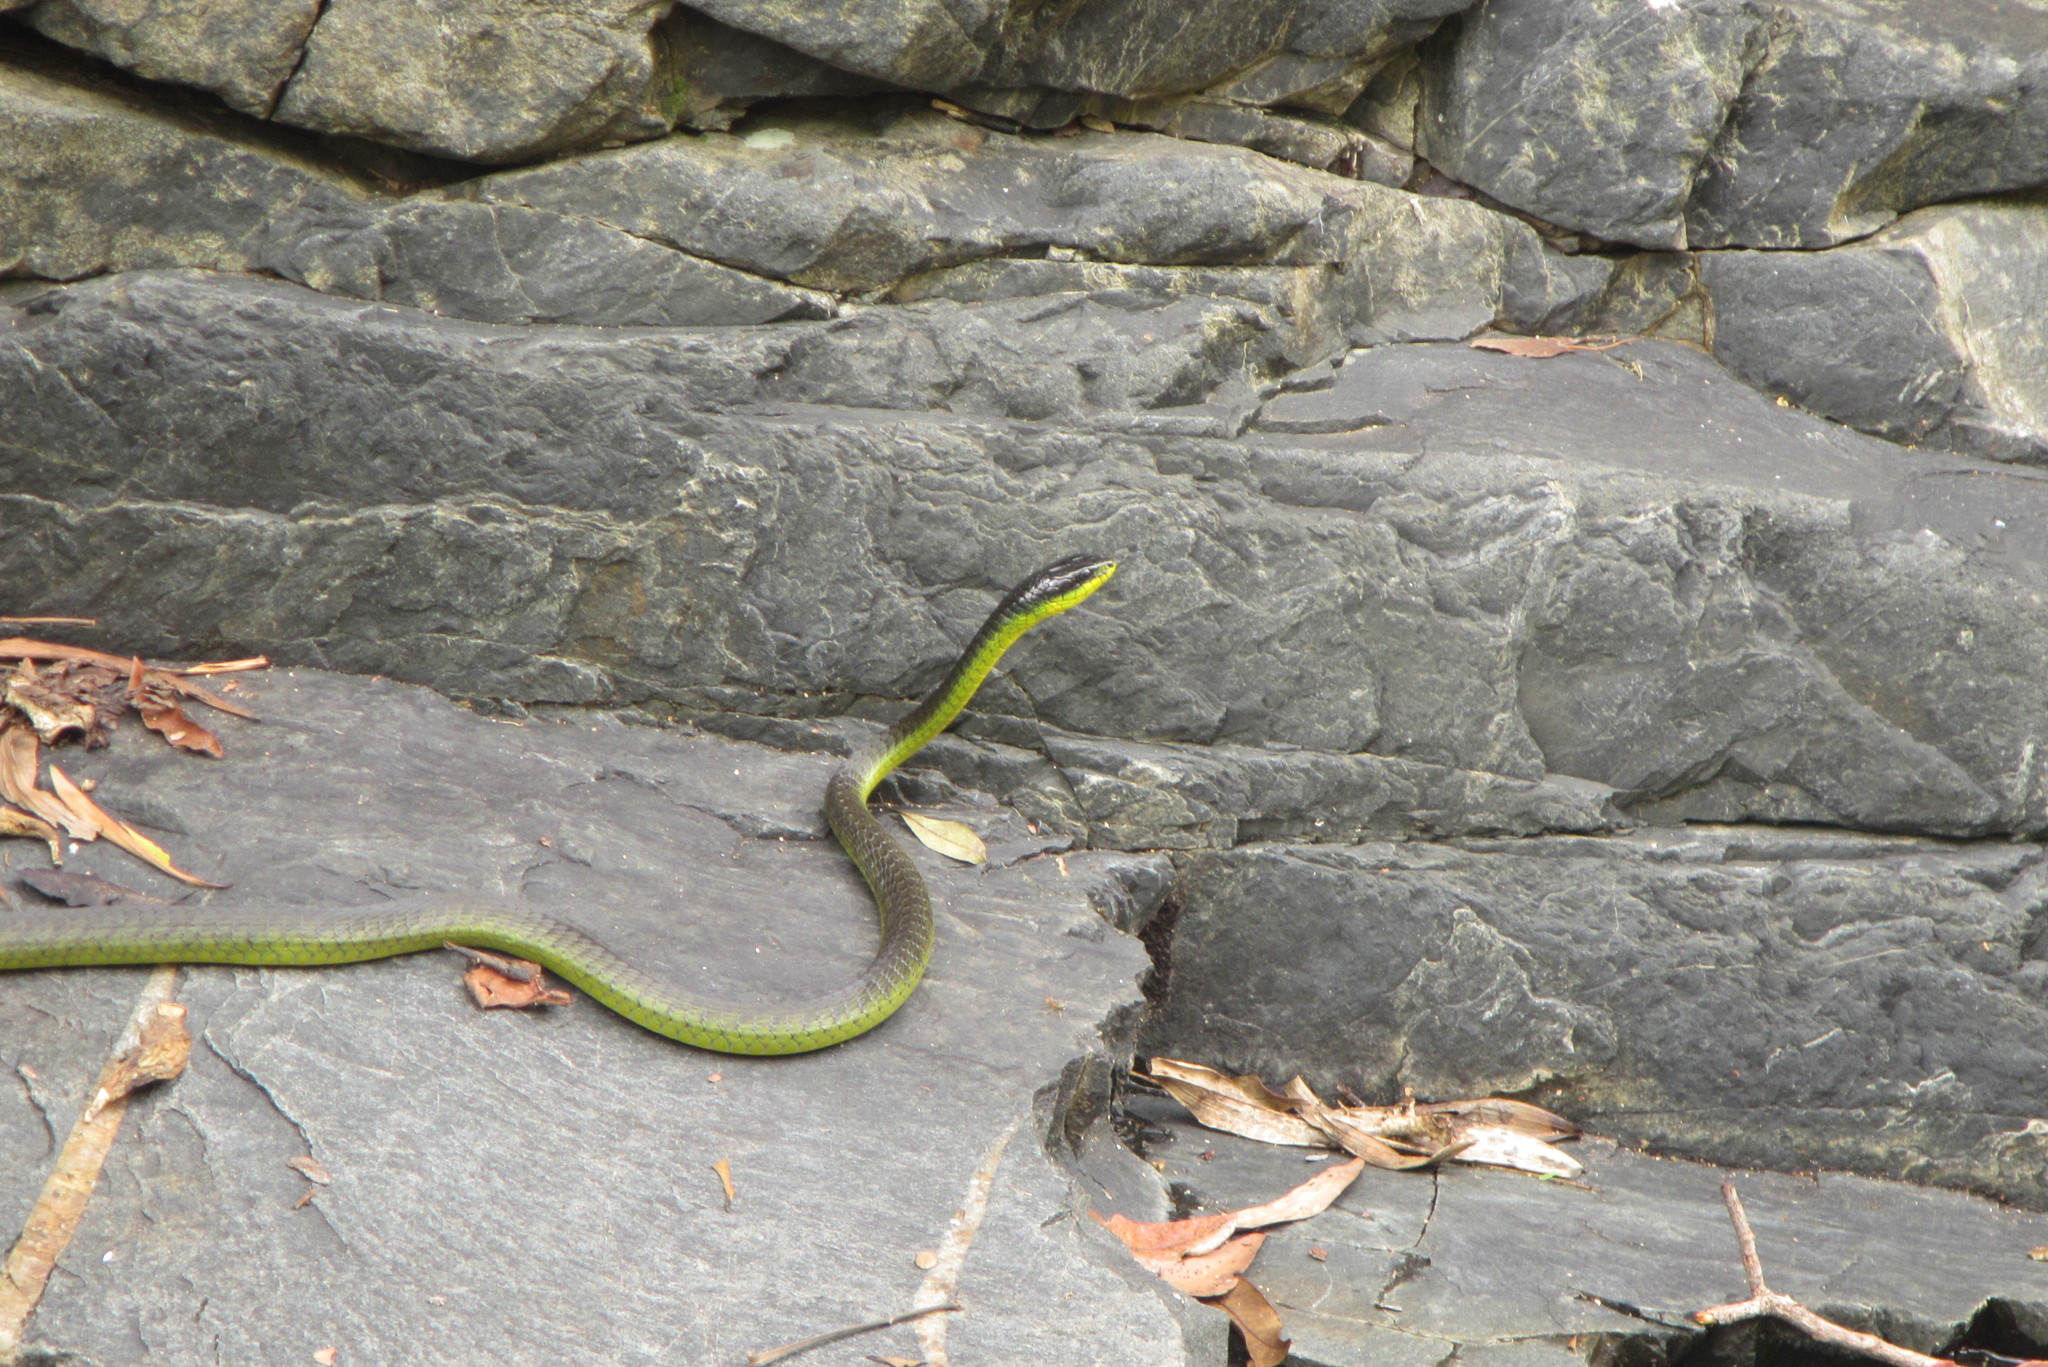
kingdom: Animalia
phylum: Chordata
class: Squamata
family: Colubridae
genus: Dendrelaphis
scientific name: Dendrelaphis punctulatus
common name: Common tree snake
